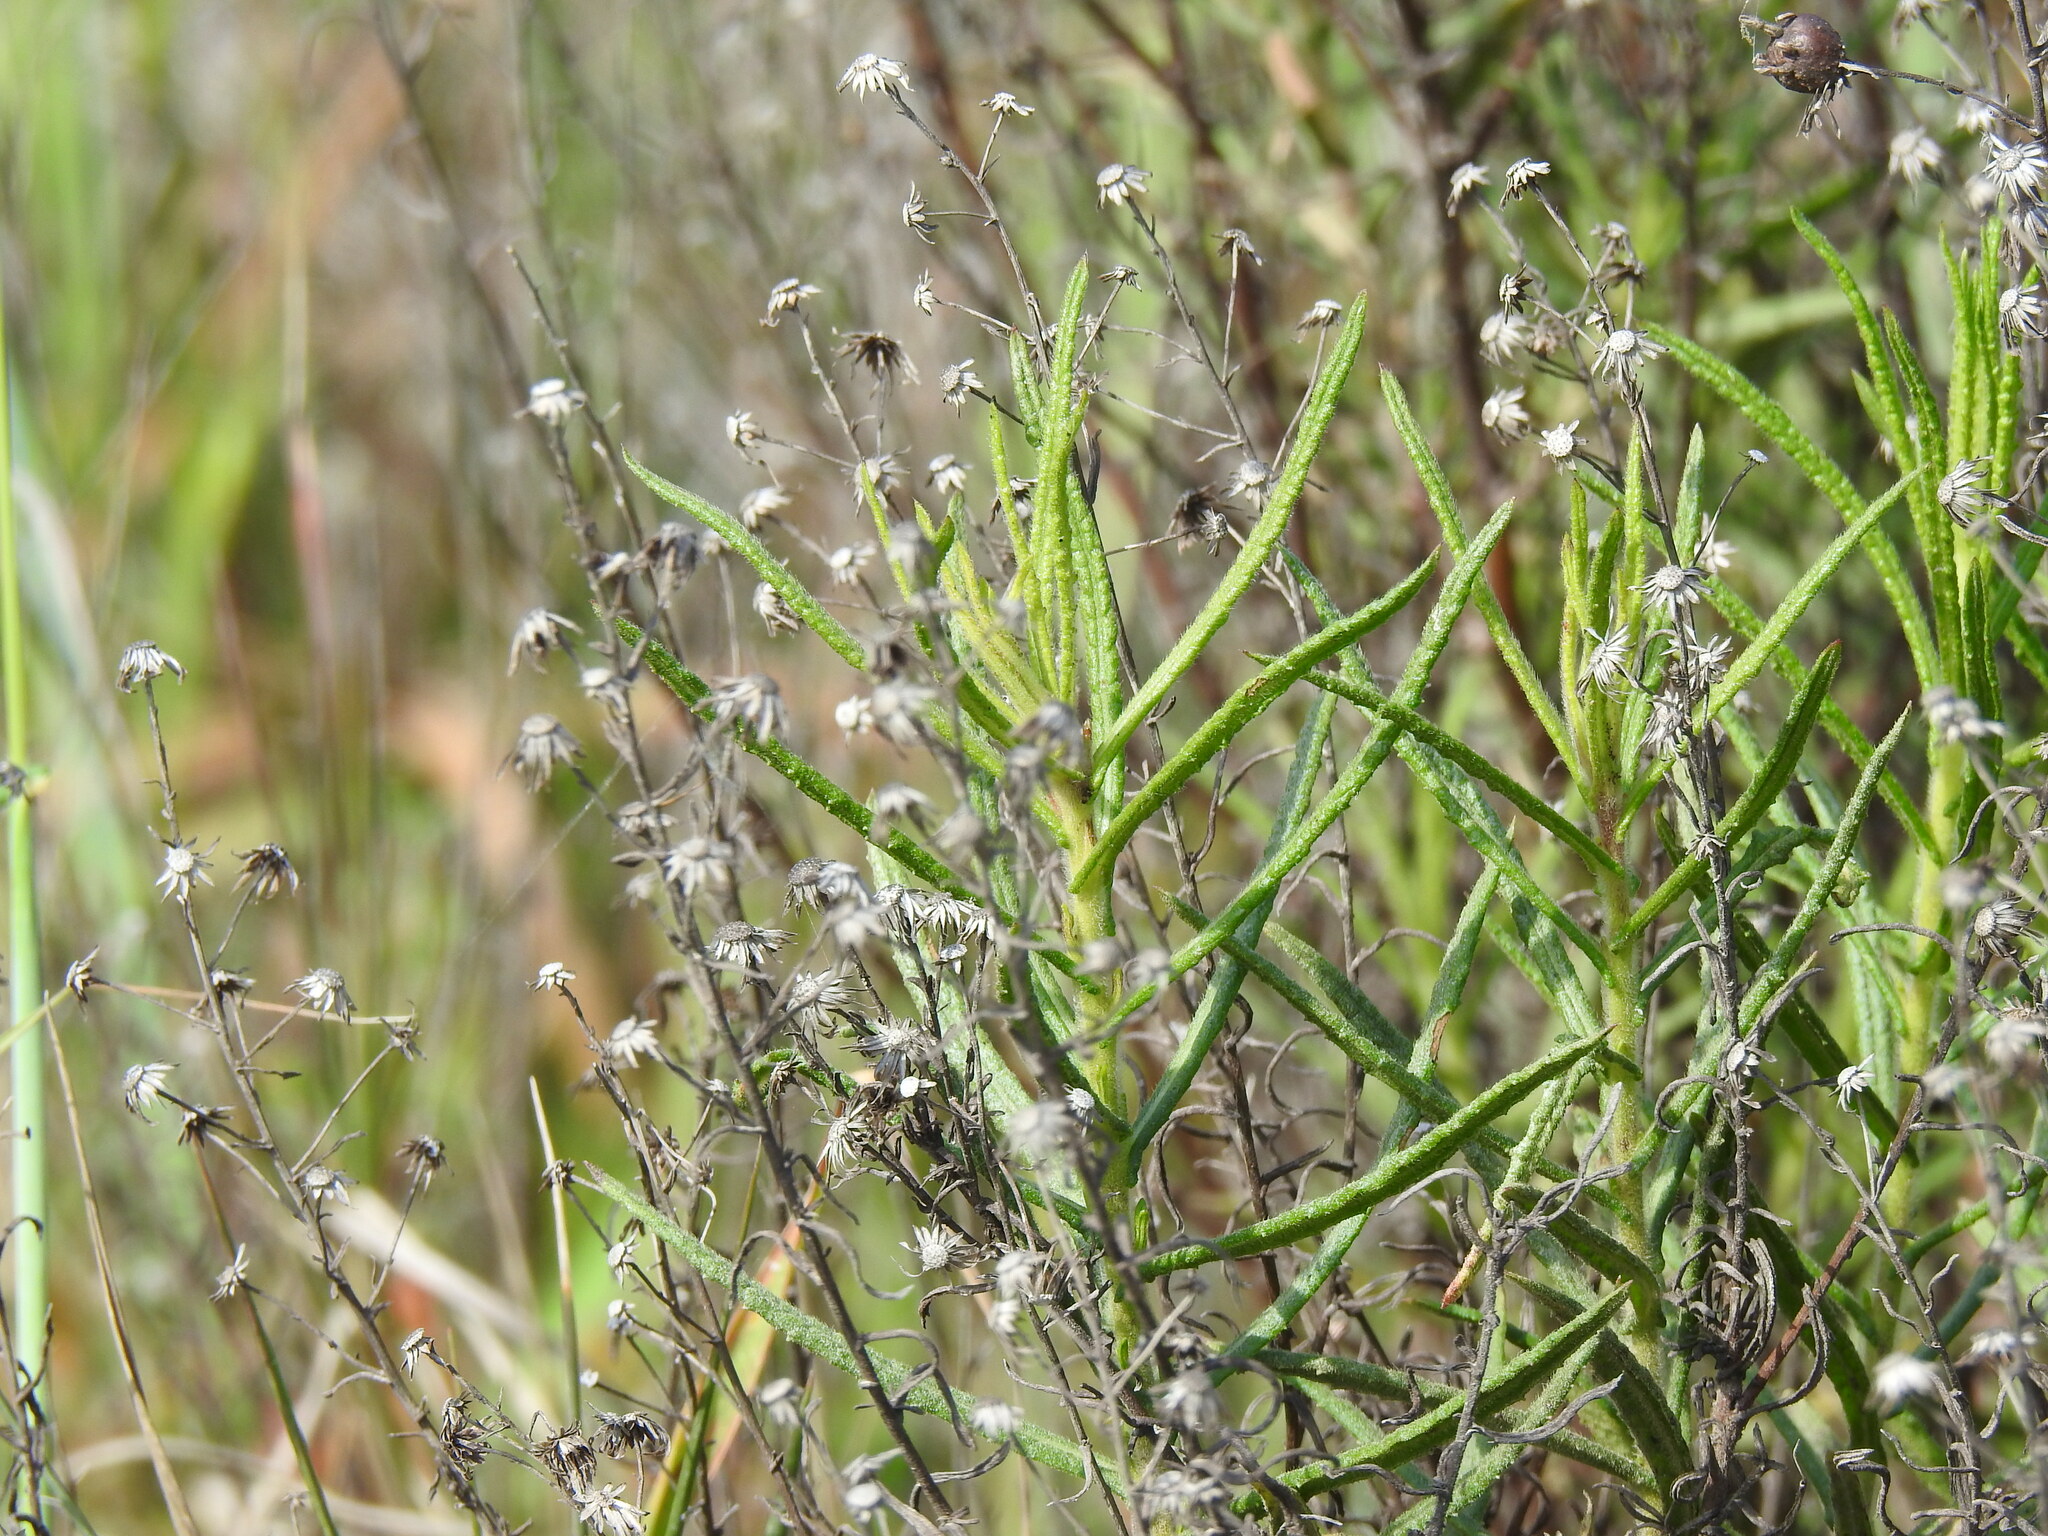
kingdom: Plantae
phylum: Tracheophyta
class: Magnoliopsida
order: Asterales
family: Asteraceae
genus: Dittrichia
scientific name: Dittrichia viscosa
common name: Woody fleabane
